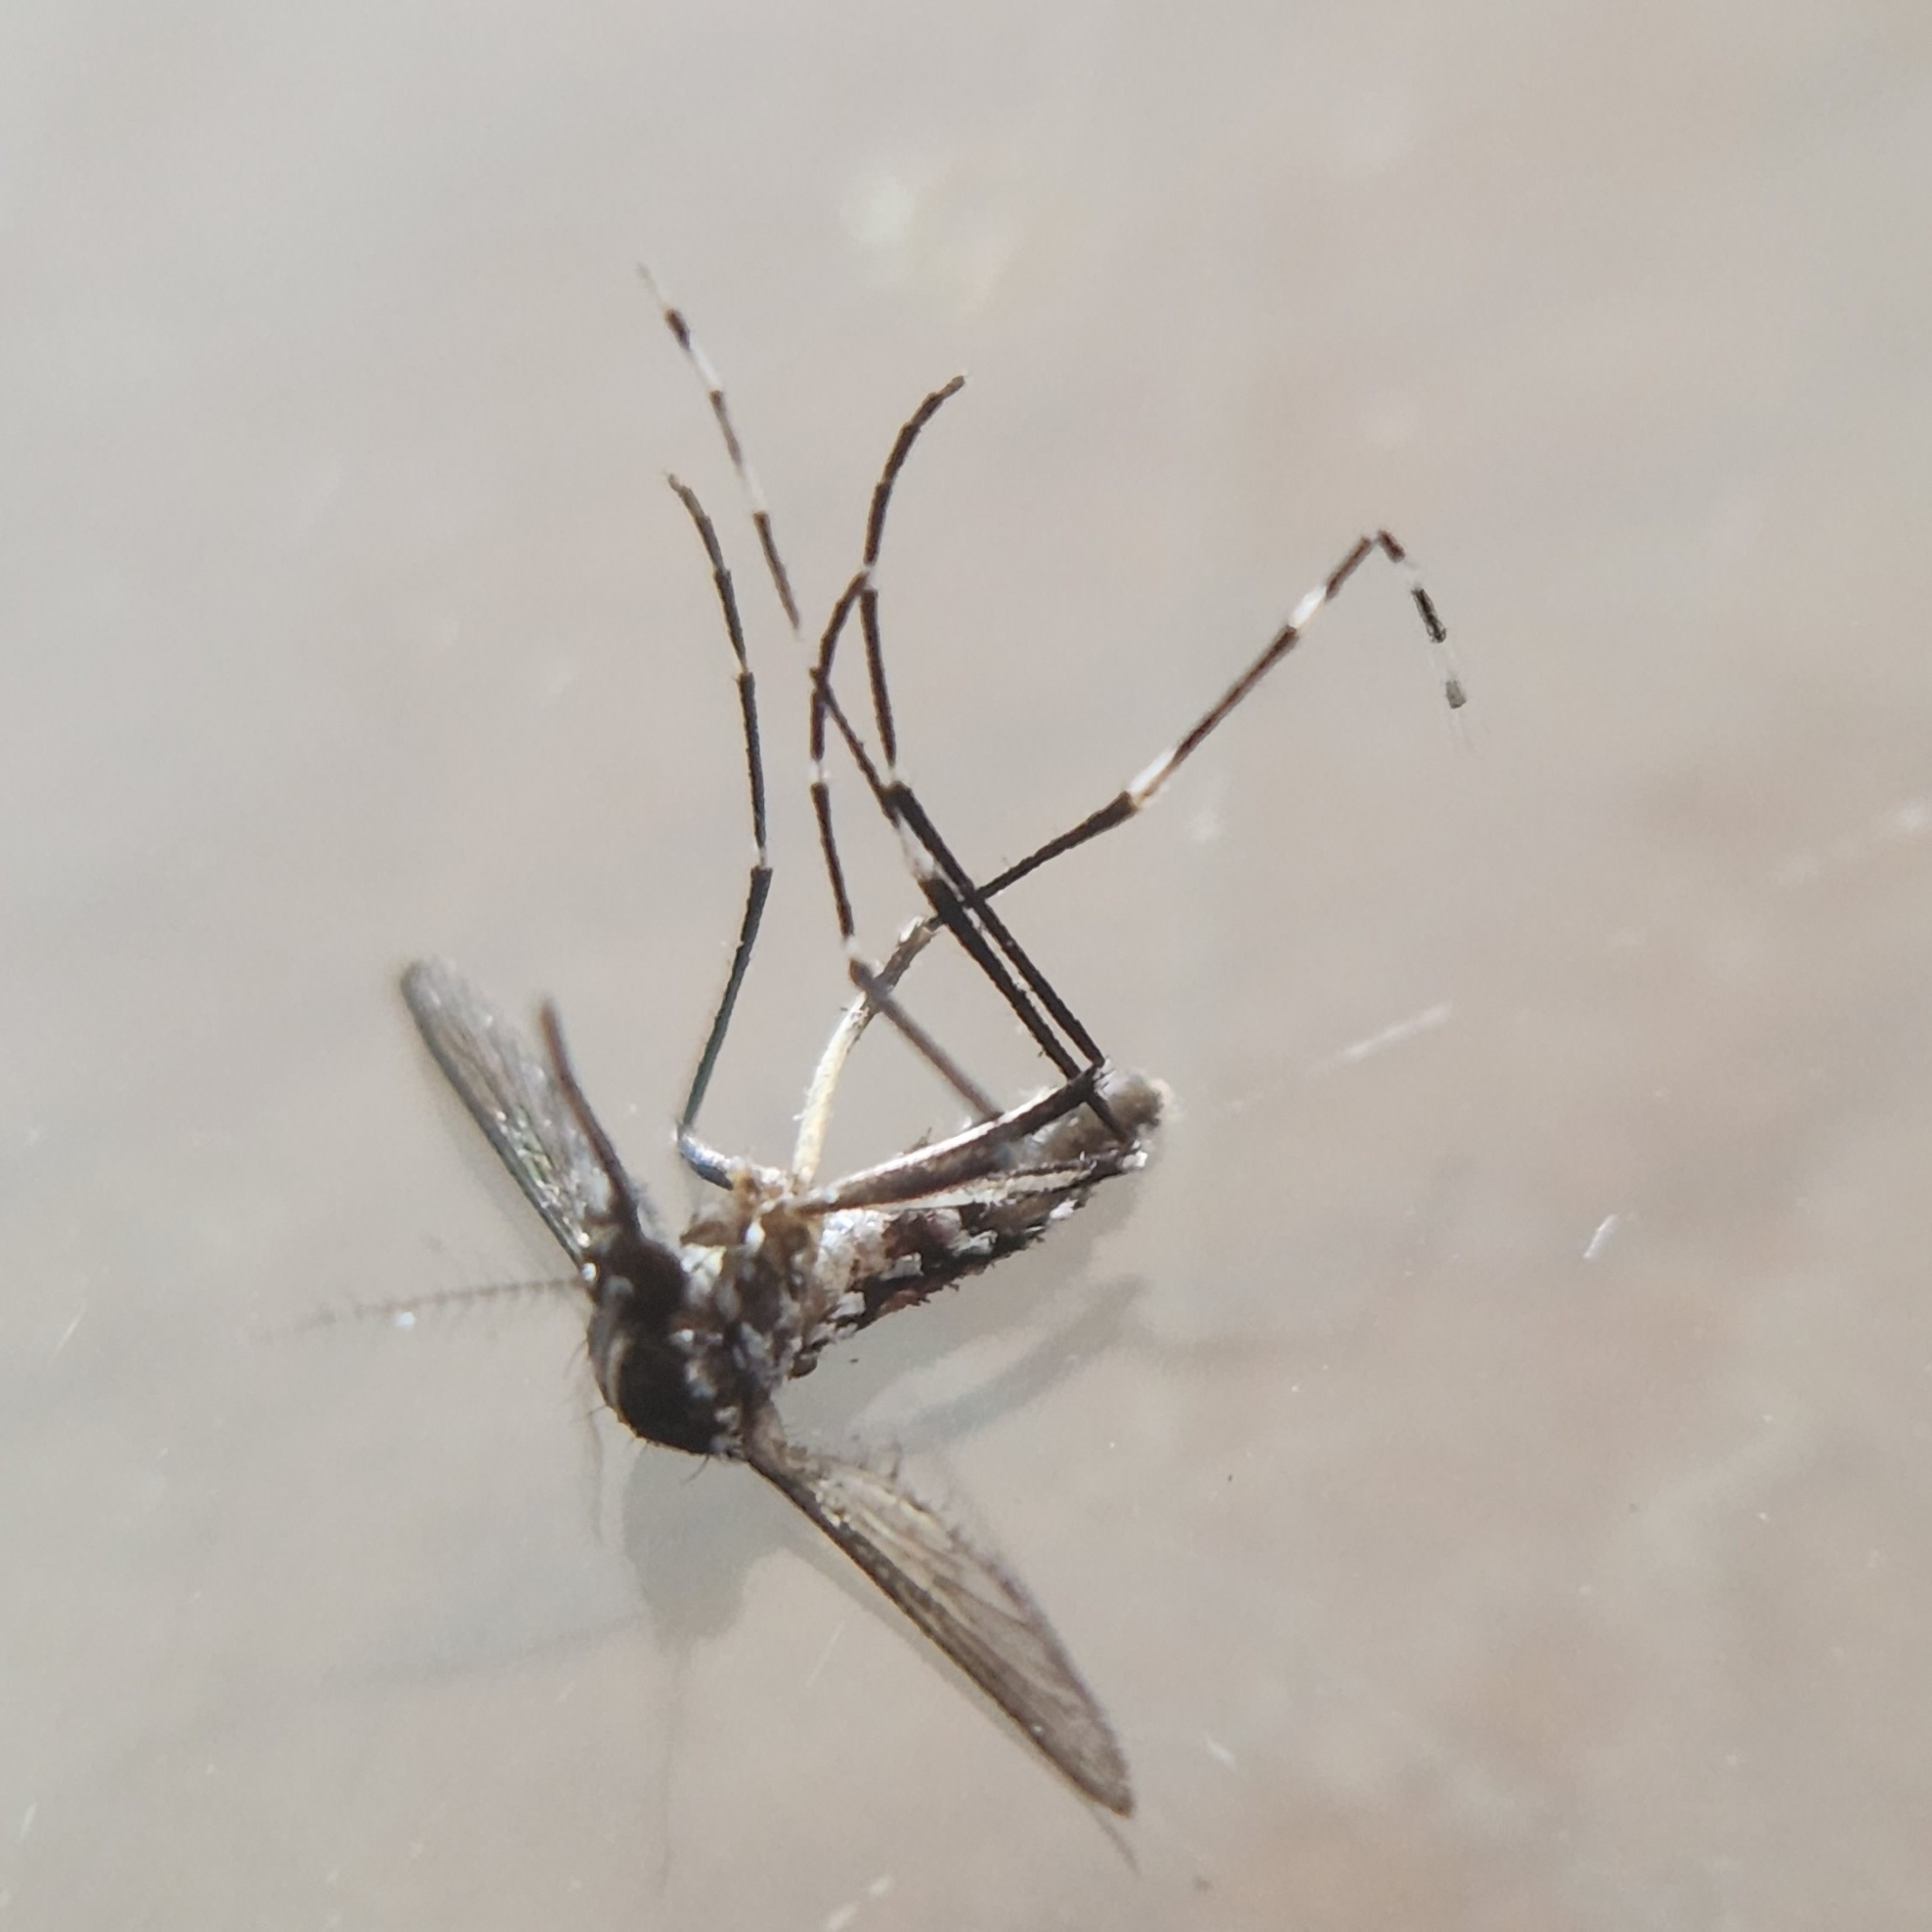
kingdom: Animalia
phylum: Arthropoda
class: Insecta
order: Diptera
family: Culicidae
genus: Aedes
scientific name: Aedes albopictus
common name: Tiger mosquito
